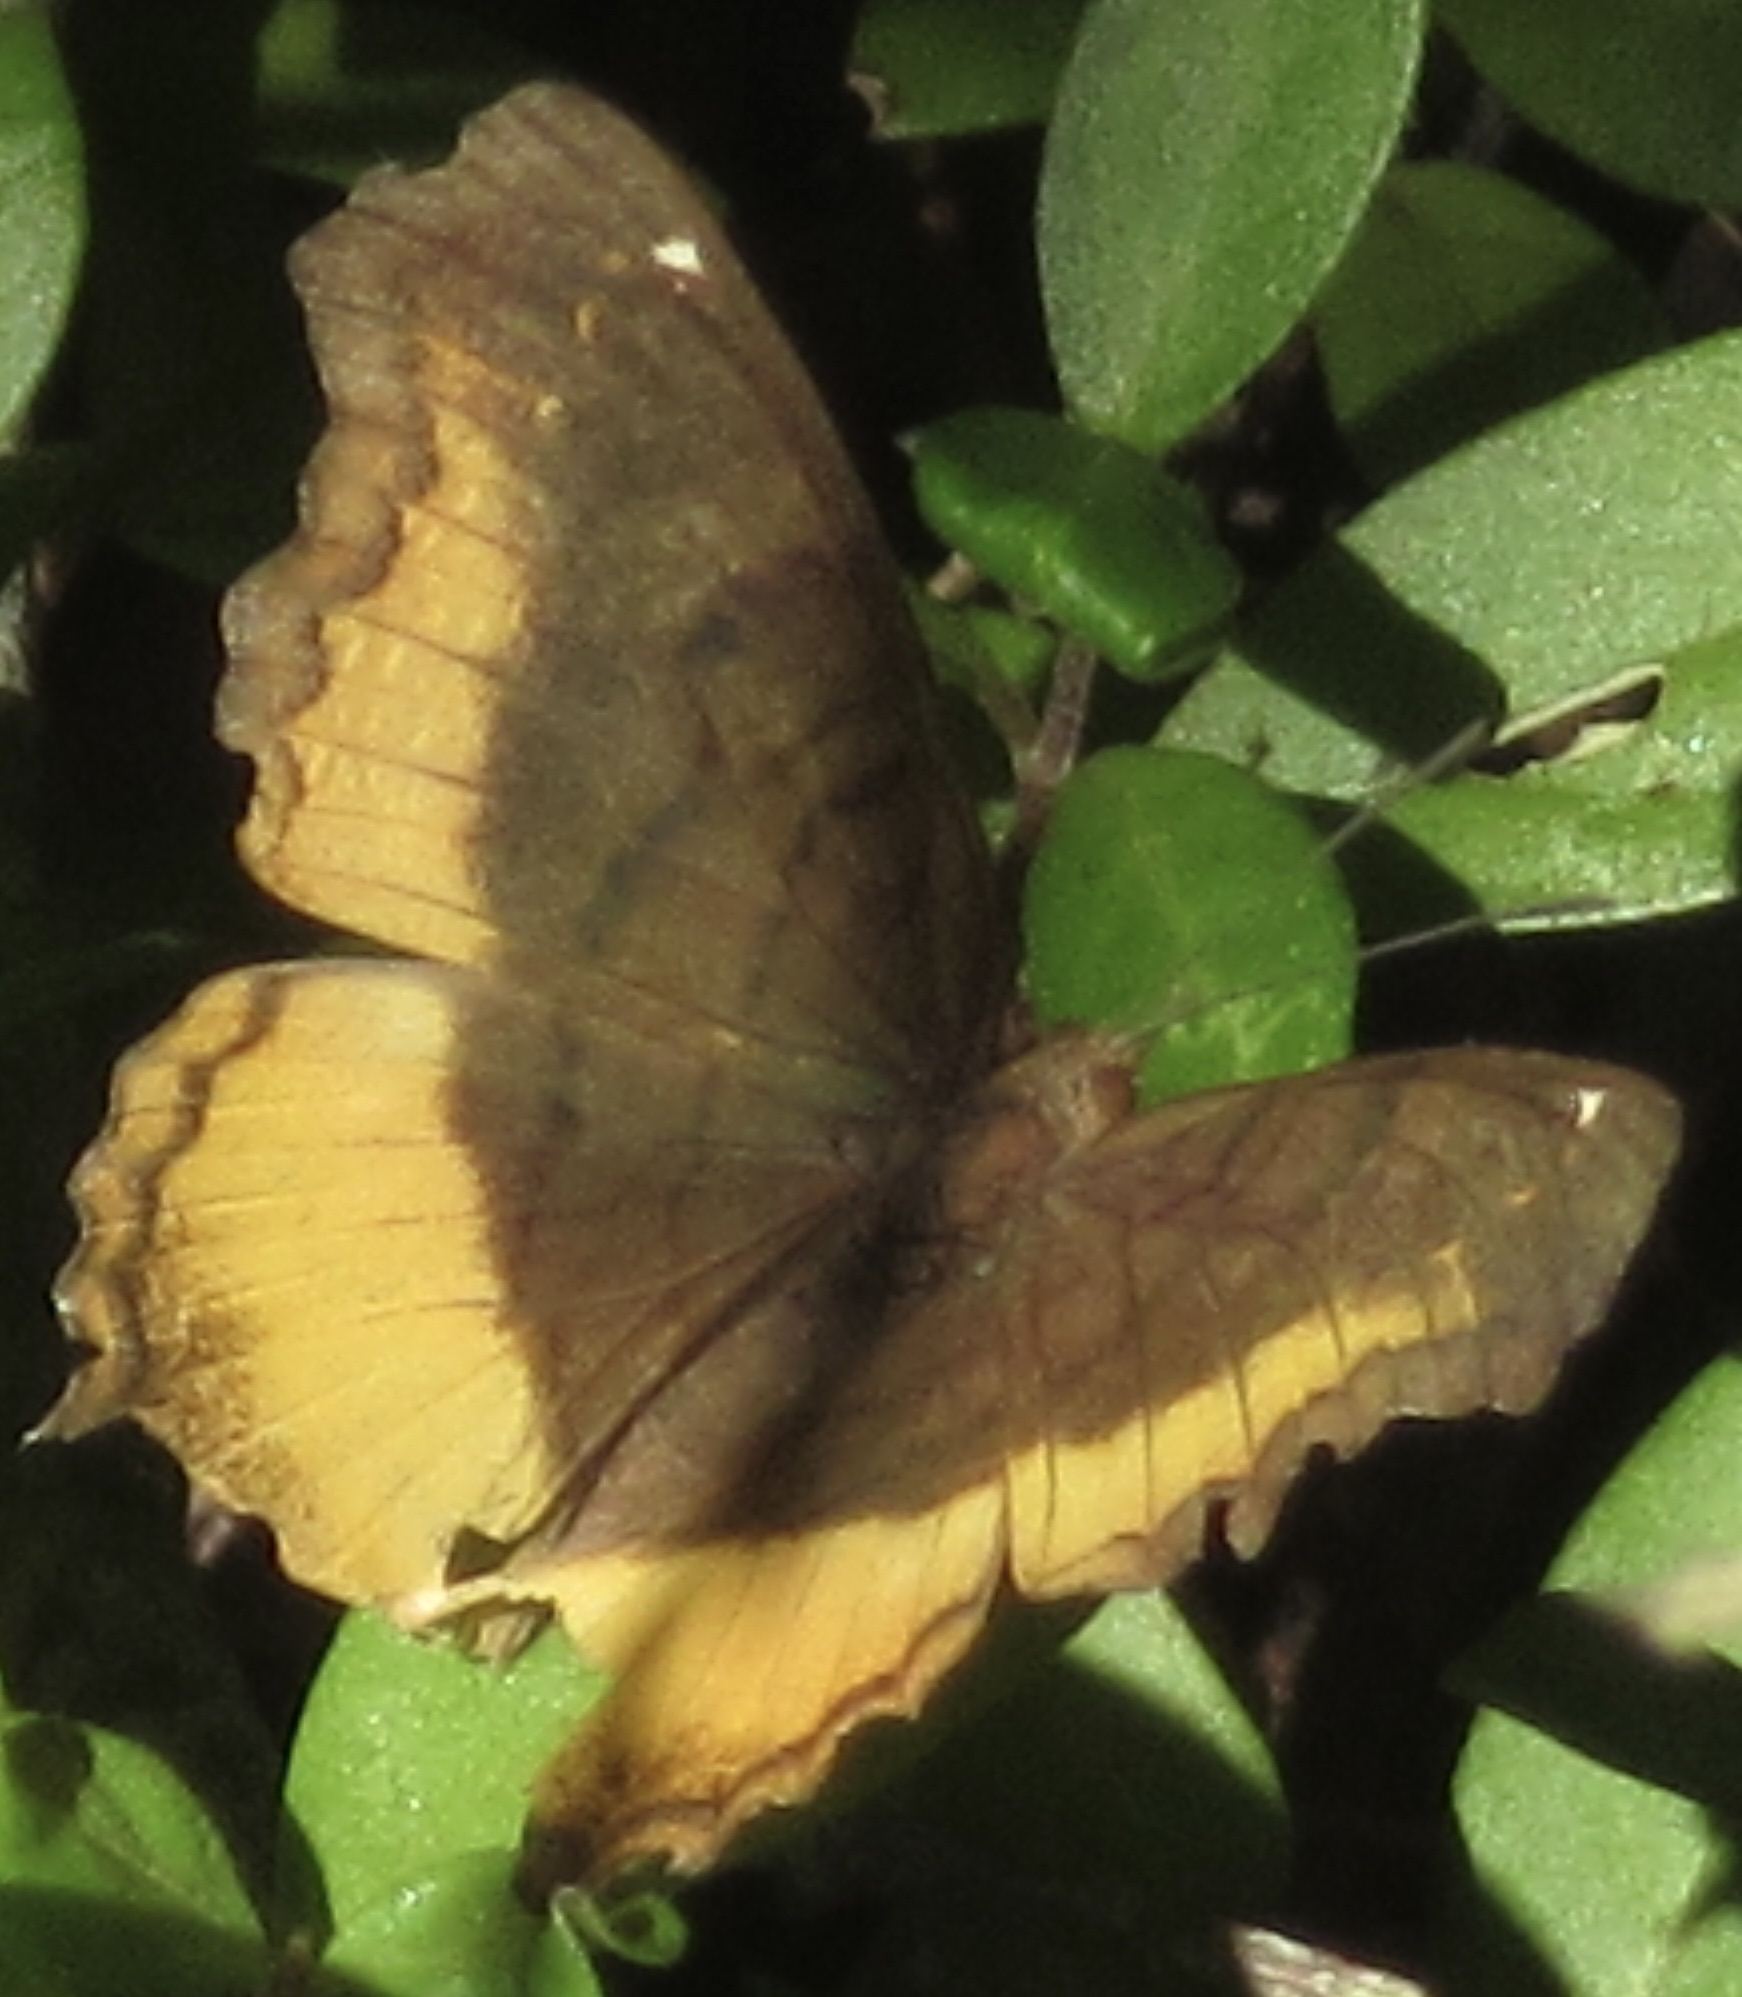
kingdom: Animalia
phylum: Arthropoda
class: Insecta
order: Lepidoptera
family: Nymphalidae
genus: Eurytela
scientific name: Eurytela dryope
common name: Golden piper
